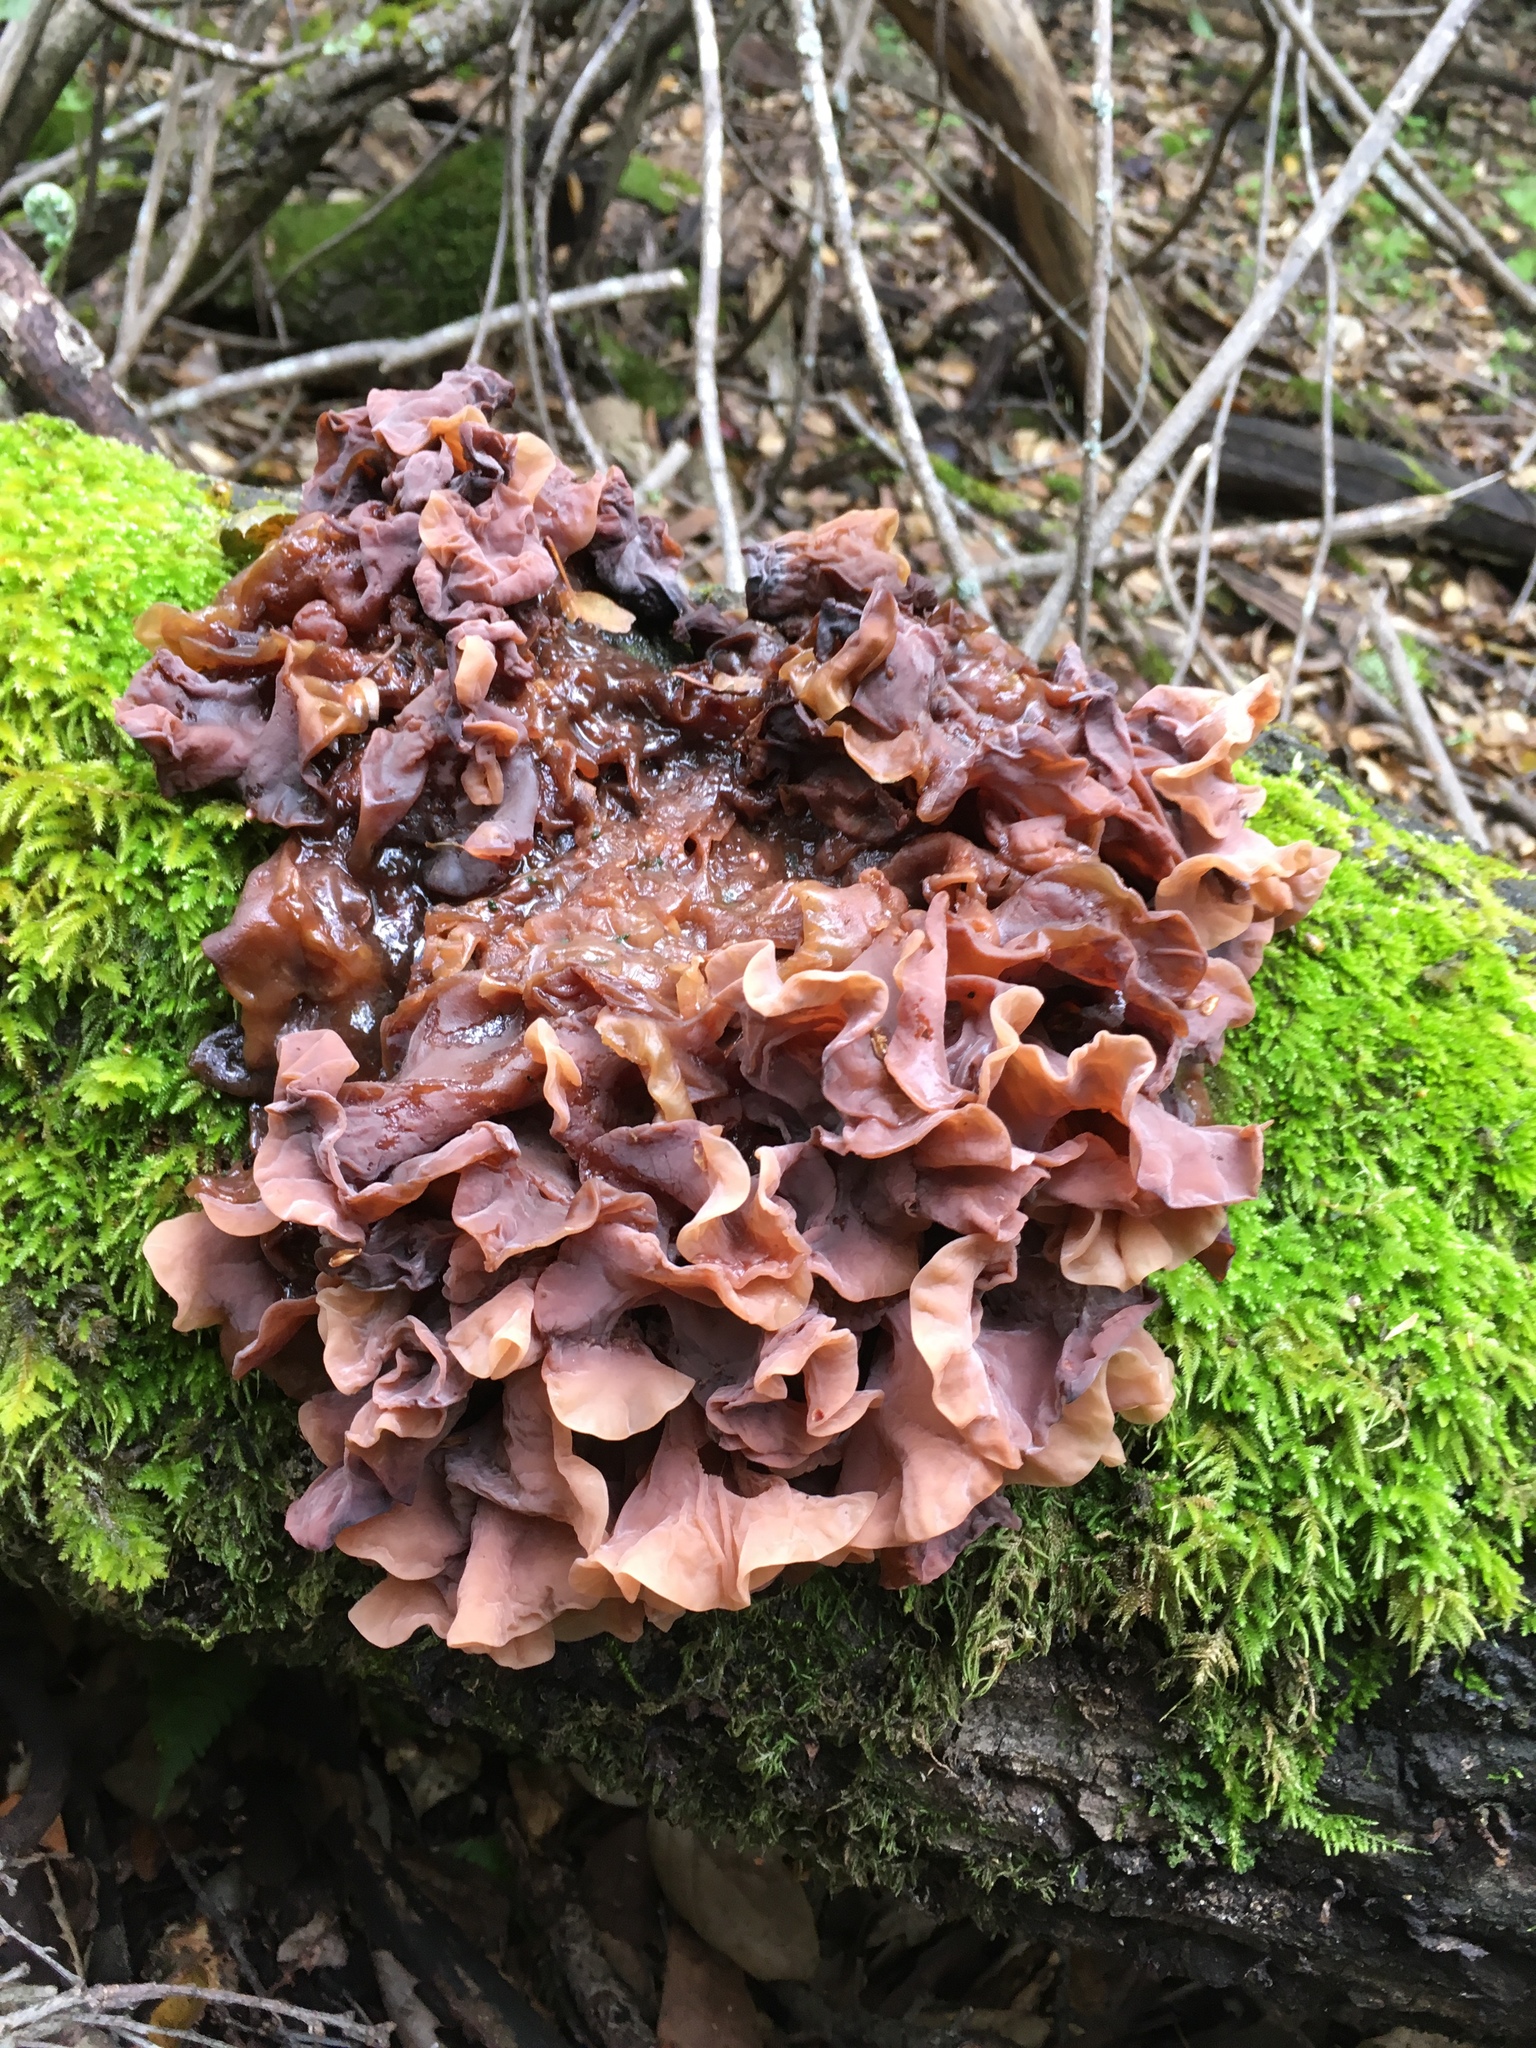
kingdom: Fungi
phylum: Basidiomycota
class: Tremellomycetes
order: Tremellales
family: Tremellaceae
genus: Phaeotremella
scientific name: Phaeotremella foliacea
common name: Leafy brain
